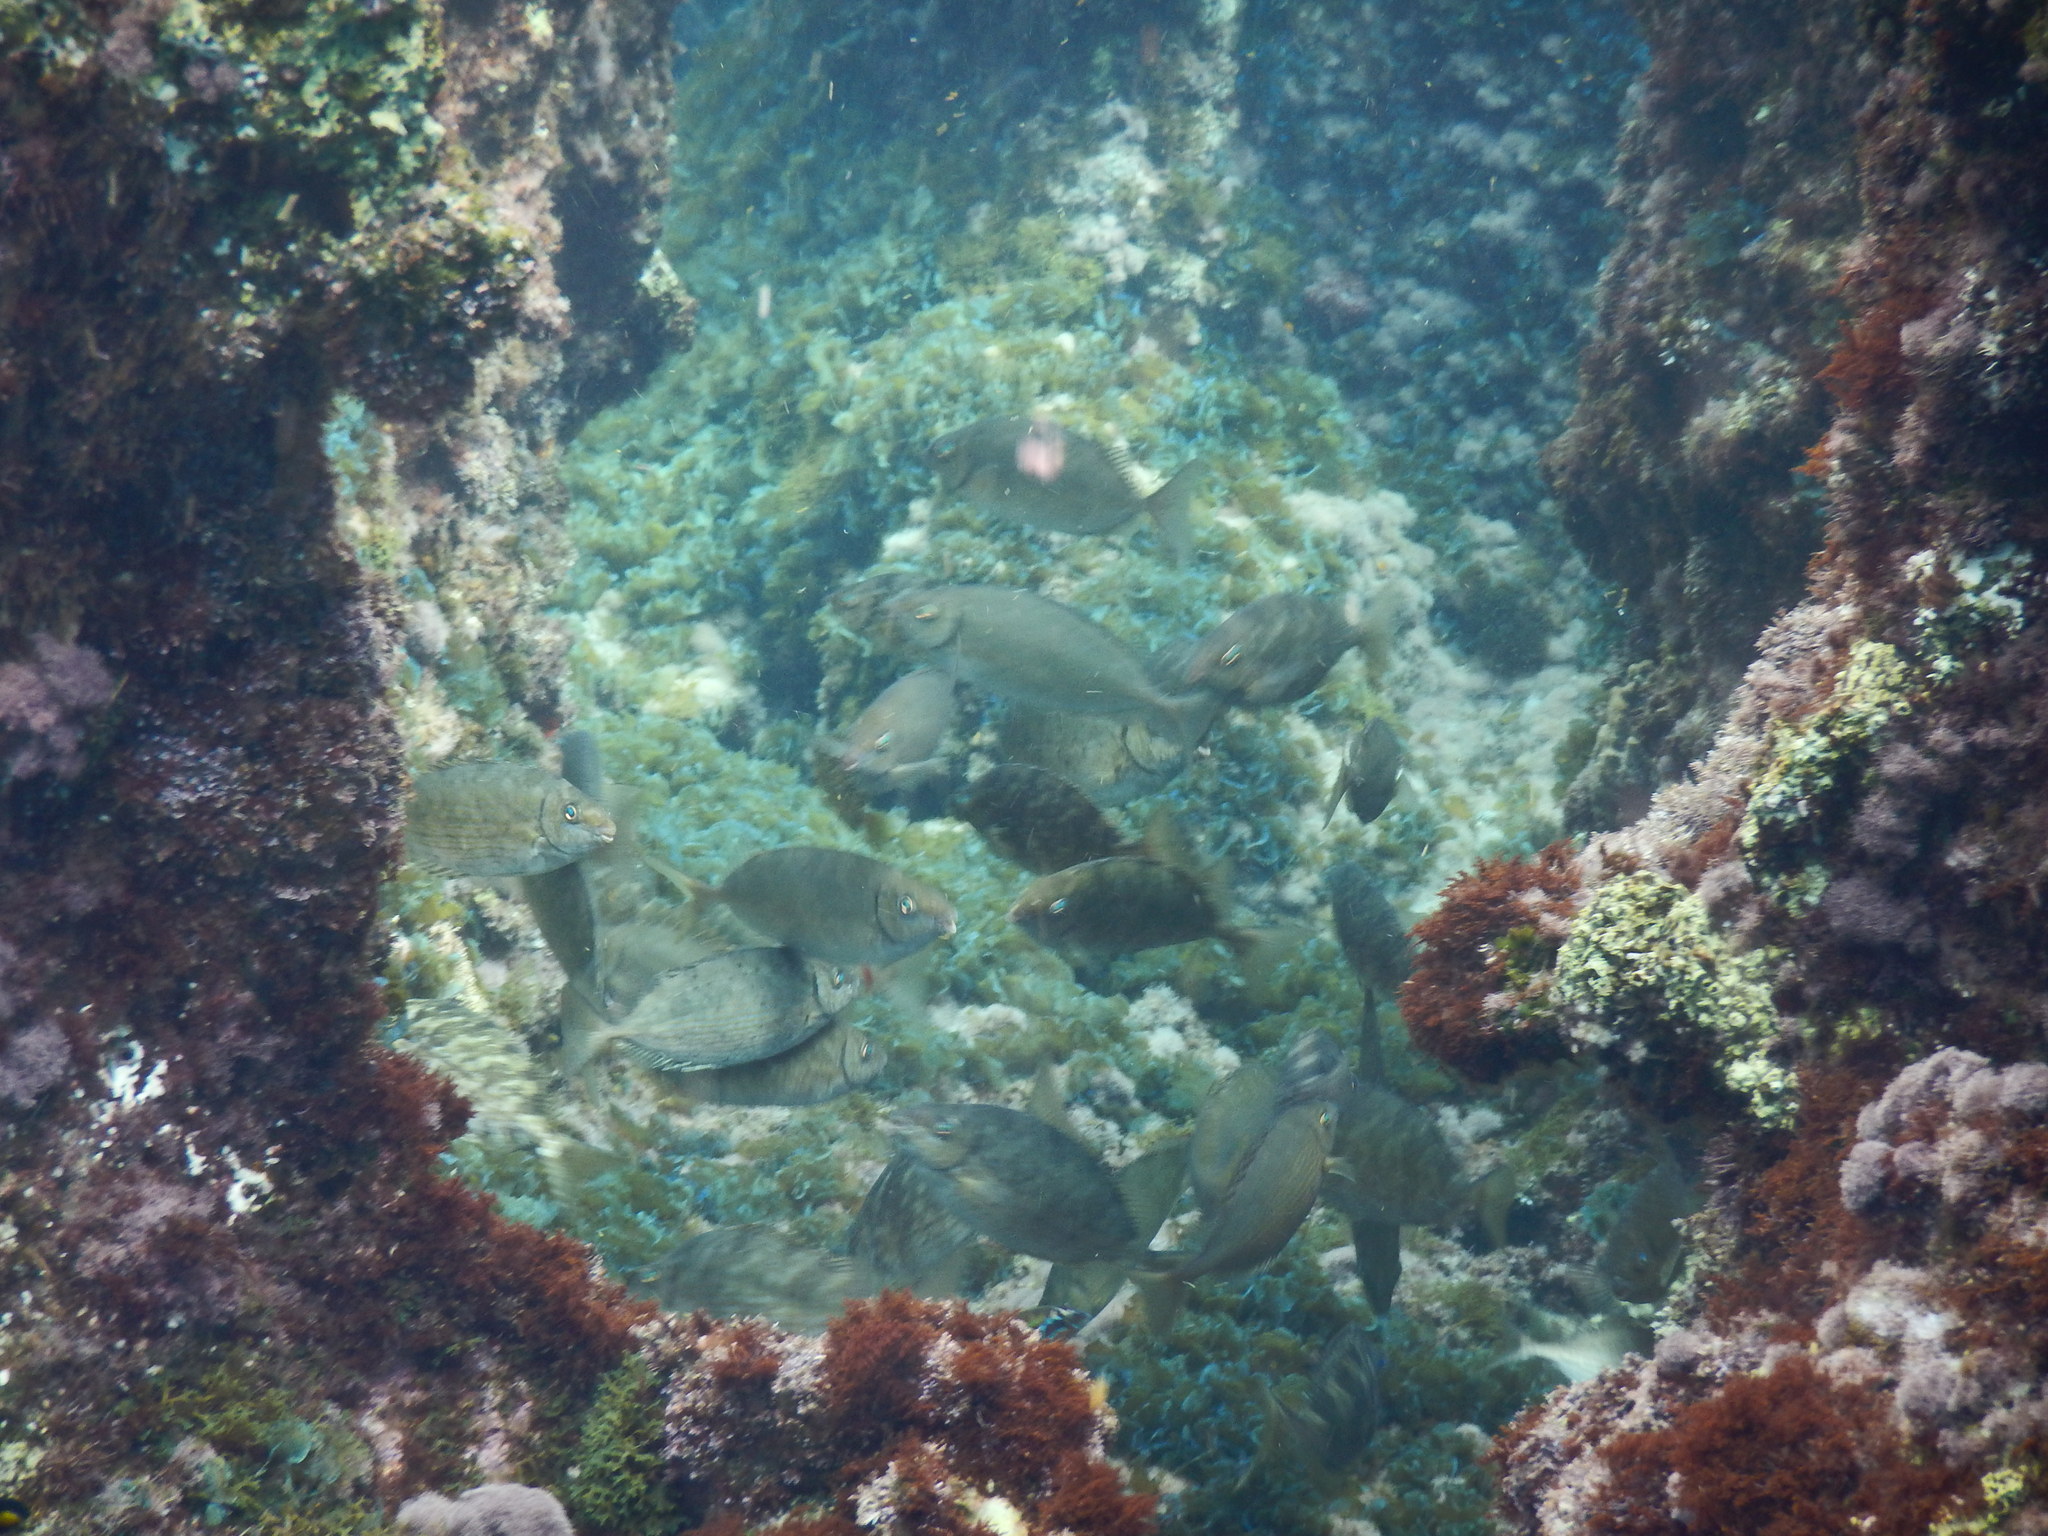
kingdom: Animalia
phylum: Chordata
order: Perciformes
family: Siganidae
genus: Siganus
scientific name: Siganus rivulatus
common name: Marbled spinefoot
